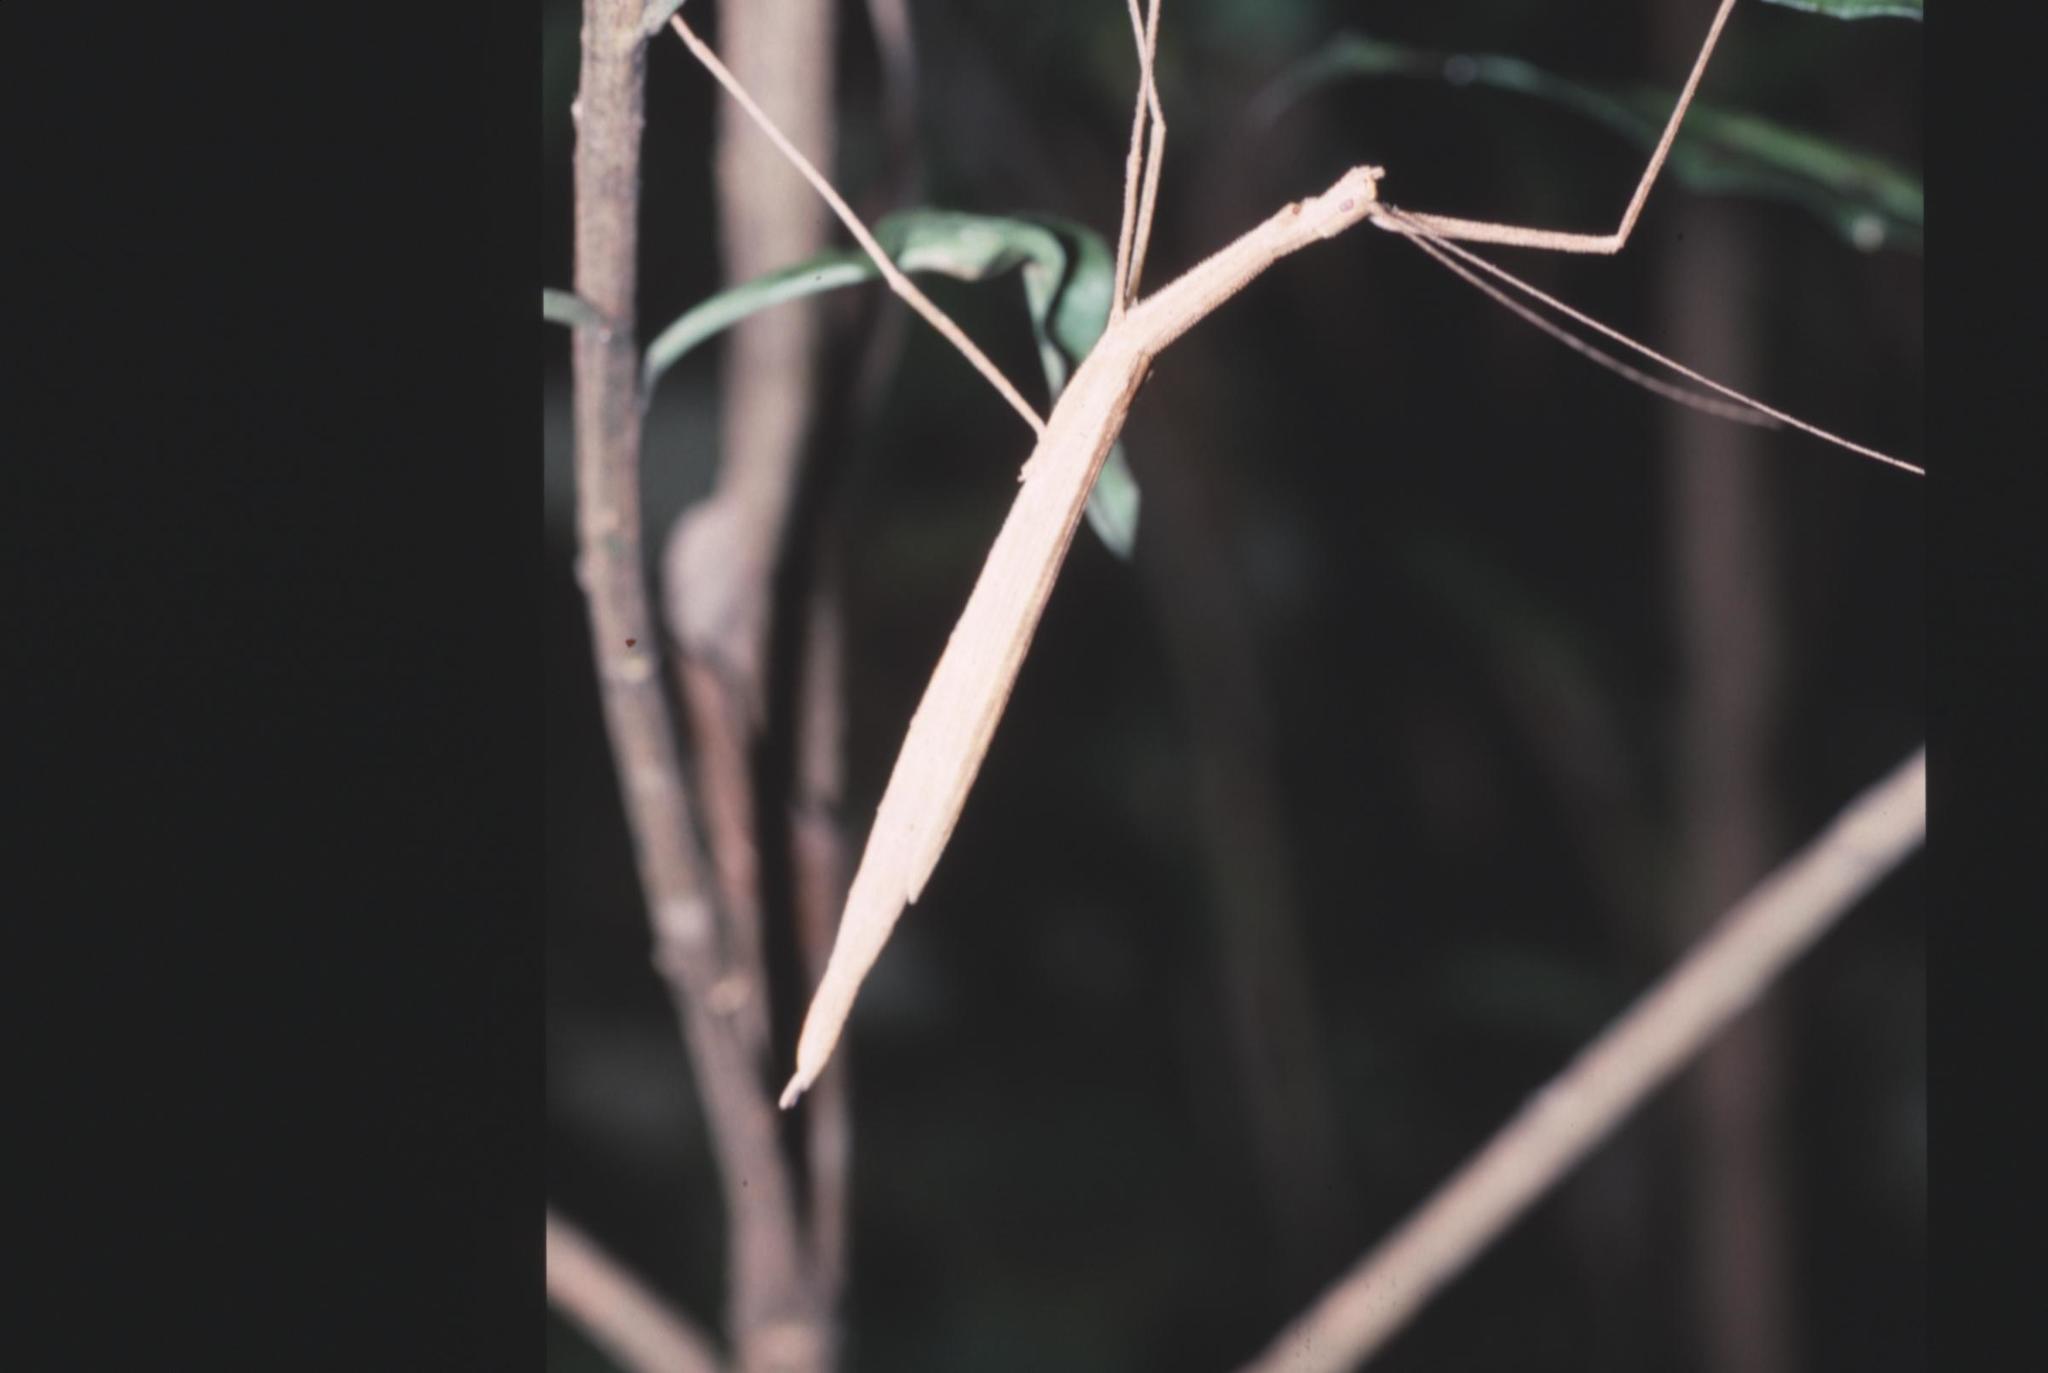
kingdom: Animalia
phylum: Arthropoda
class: Insecta
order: Phasmida
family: Lonchodidae
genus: Sipyloidea
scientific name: Sipyloidea sipylus
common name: Madagascan stick insect
